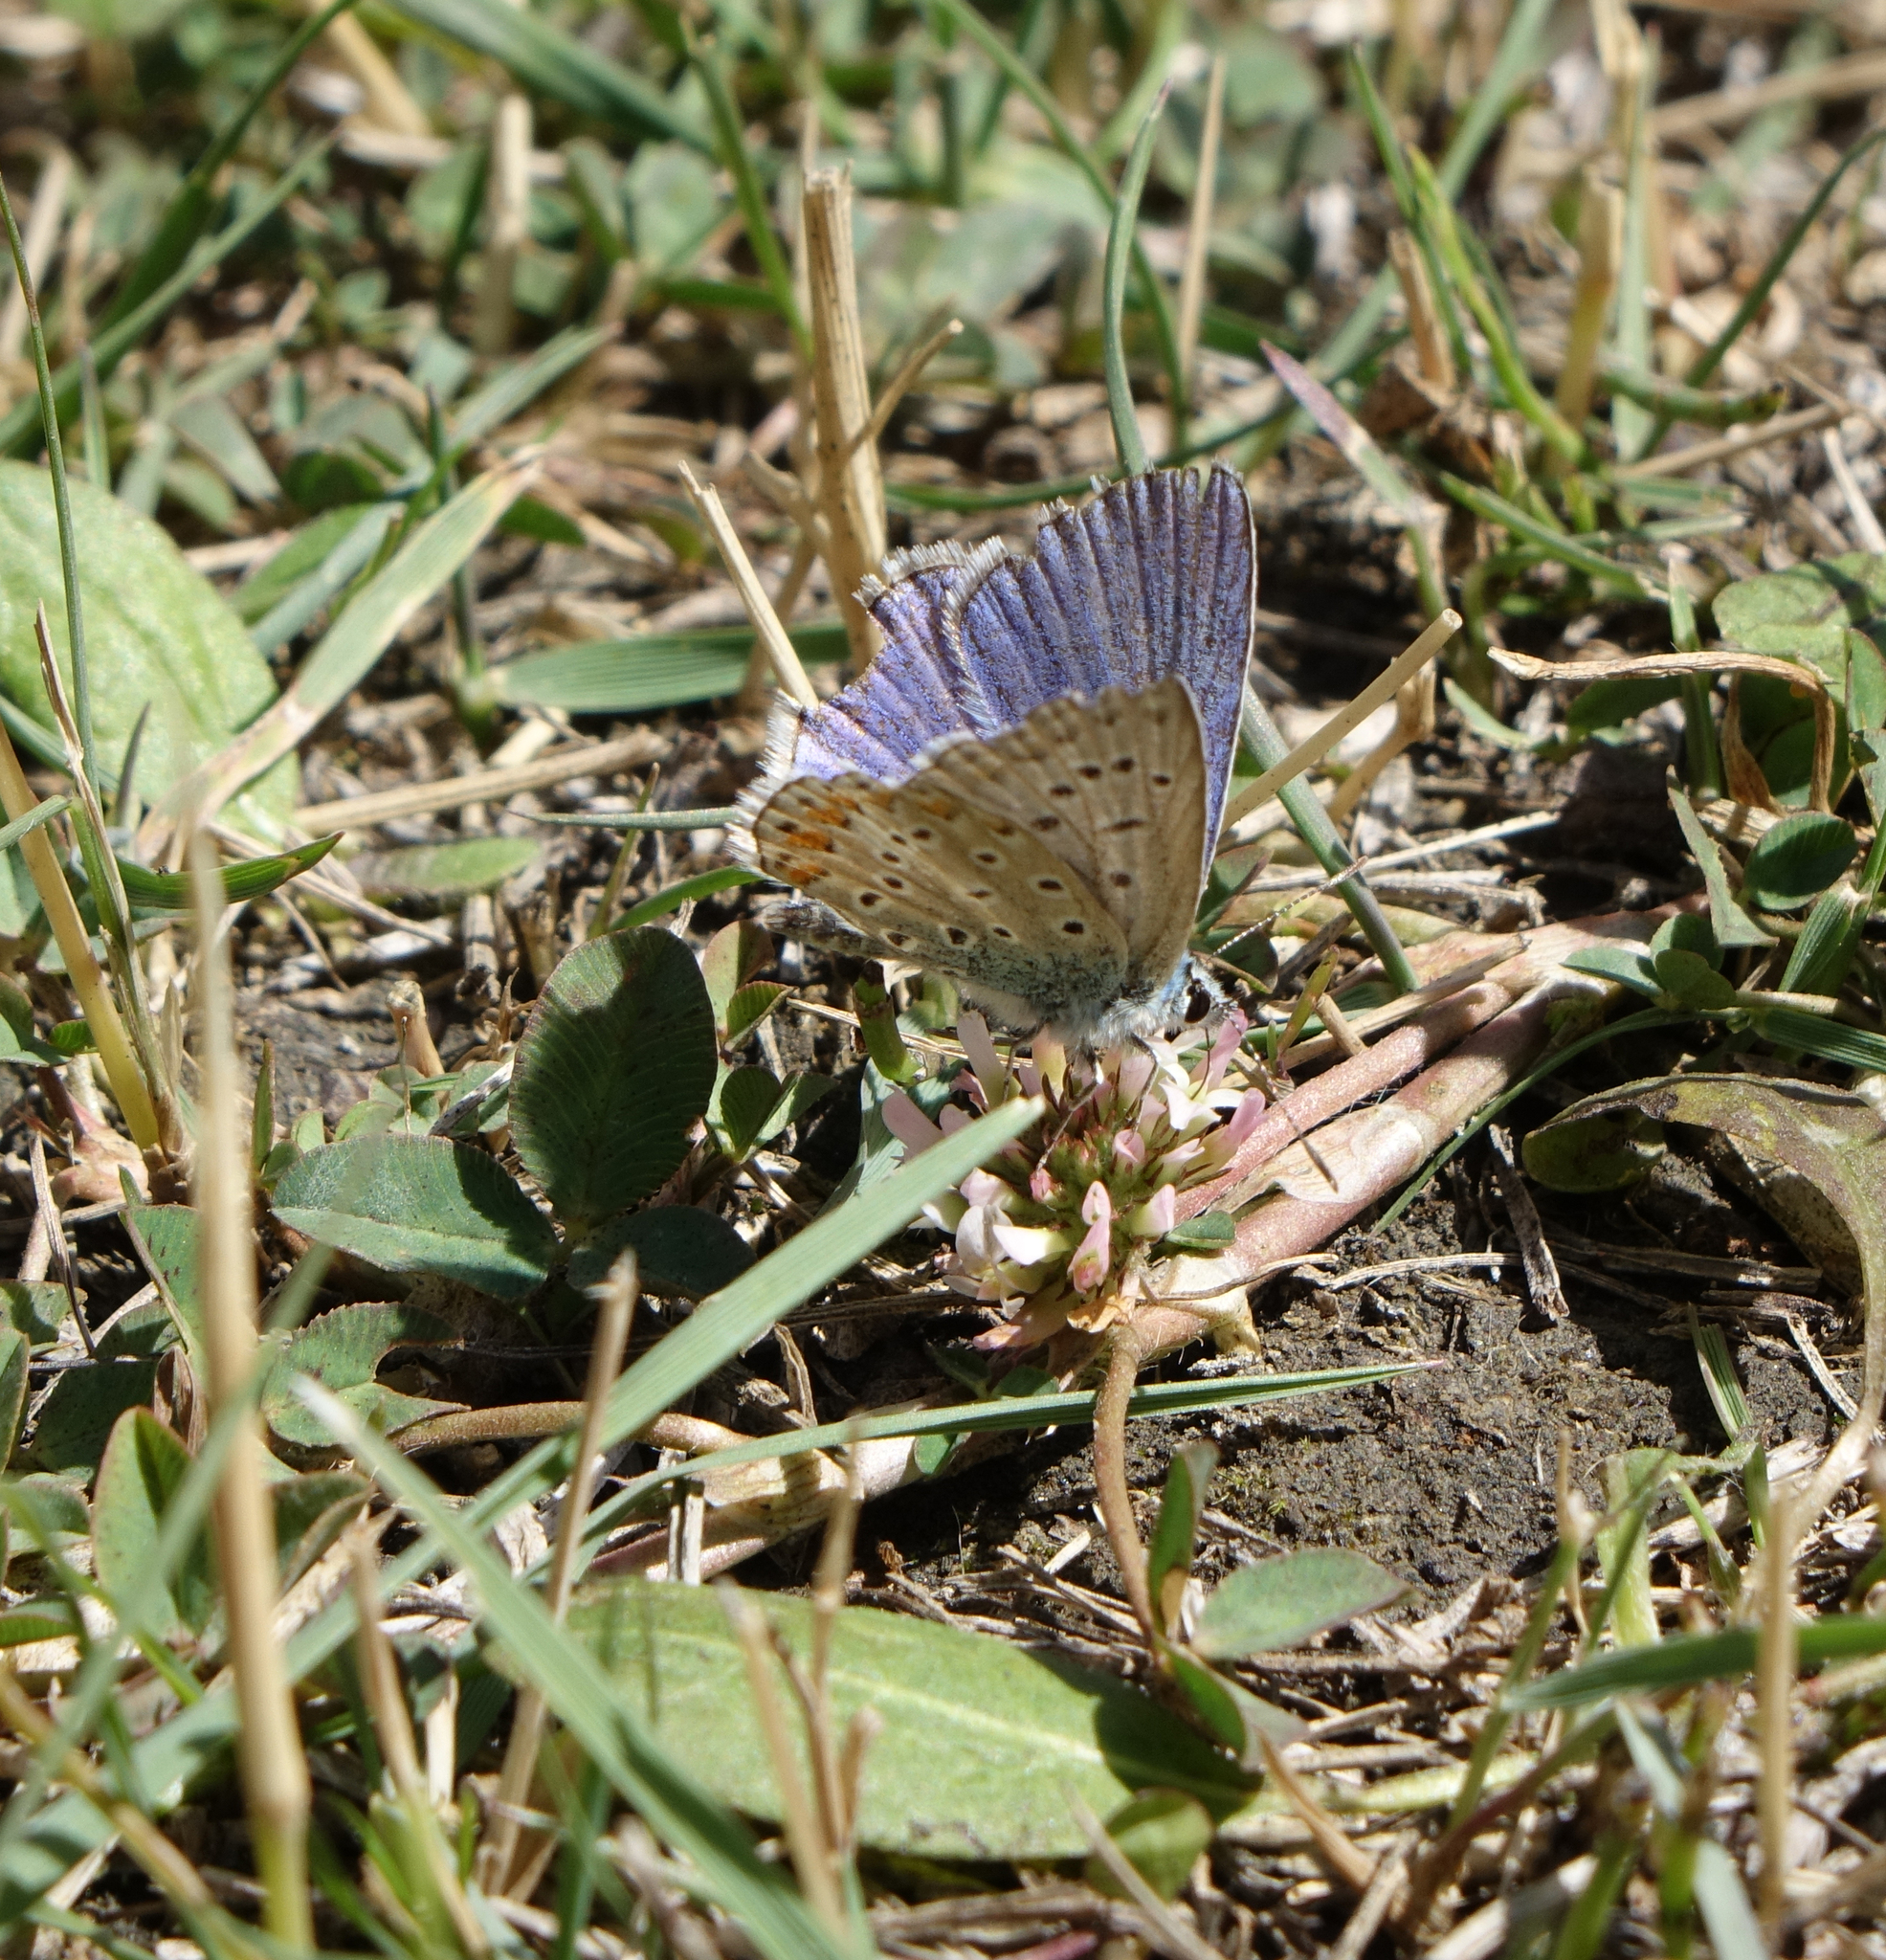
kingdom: Plantae
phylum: Tracheophyta
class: Magnoliopsida
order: Fabales
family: Fabaceae
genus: Trifolium
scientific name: Trifolium fragiferum
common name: Strawberry clover
